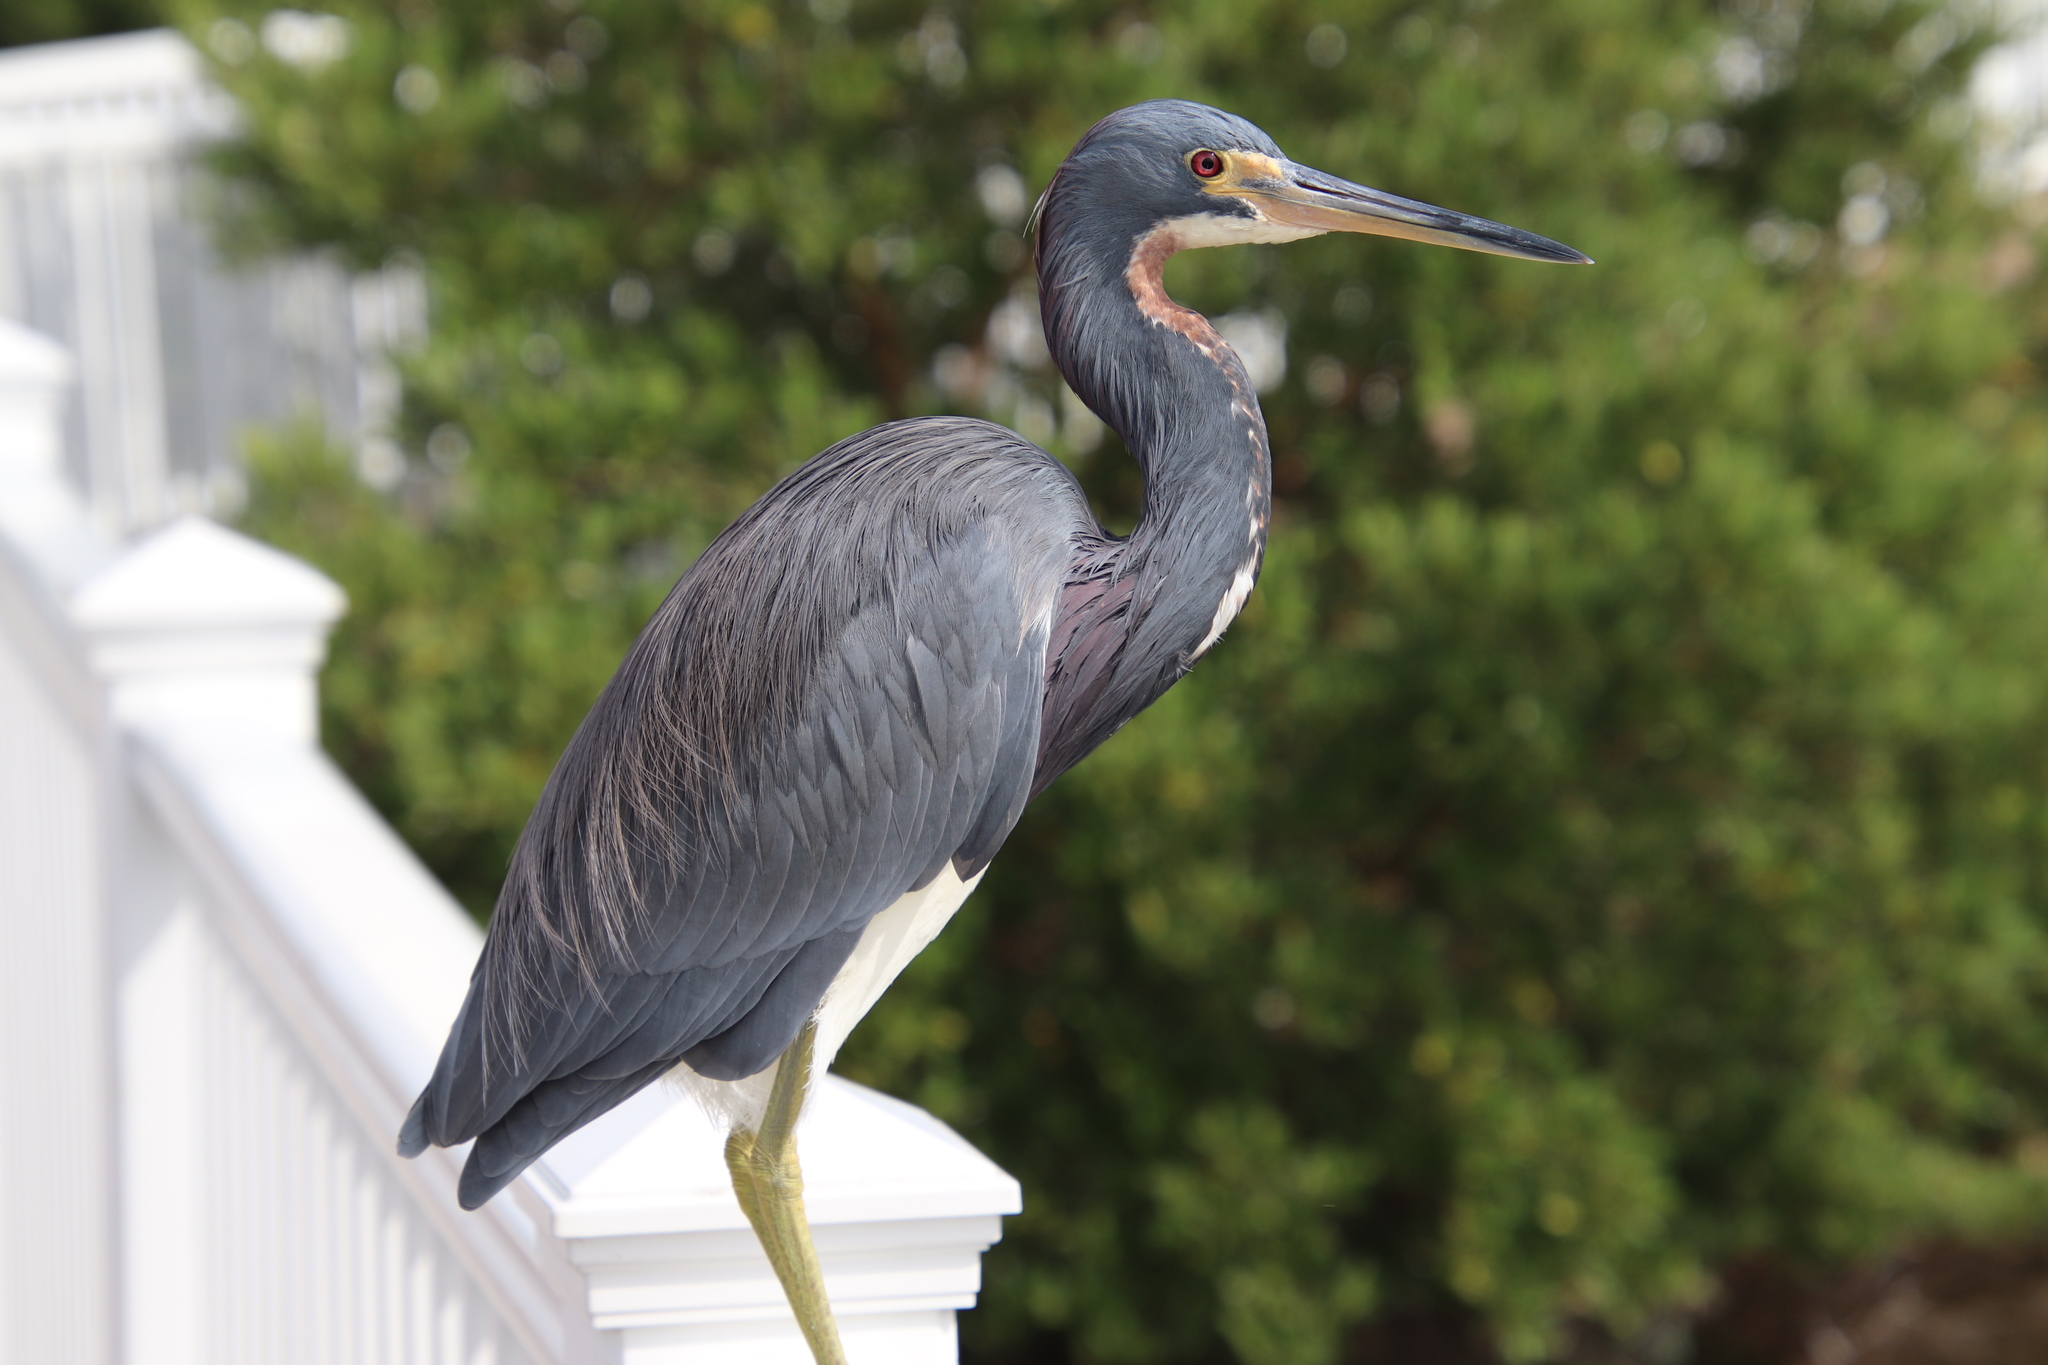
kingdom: Animalia
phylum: Chordata
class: Aves
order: Pelecaniformes
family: Ardeidae
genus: Egretta
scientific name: Egretta tricolor
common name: Tricolored heron
